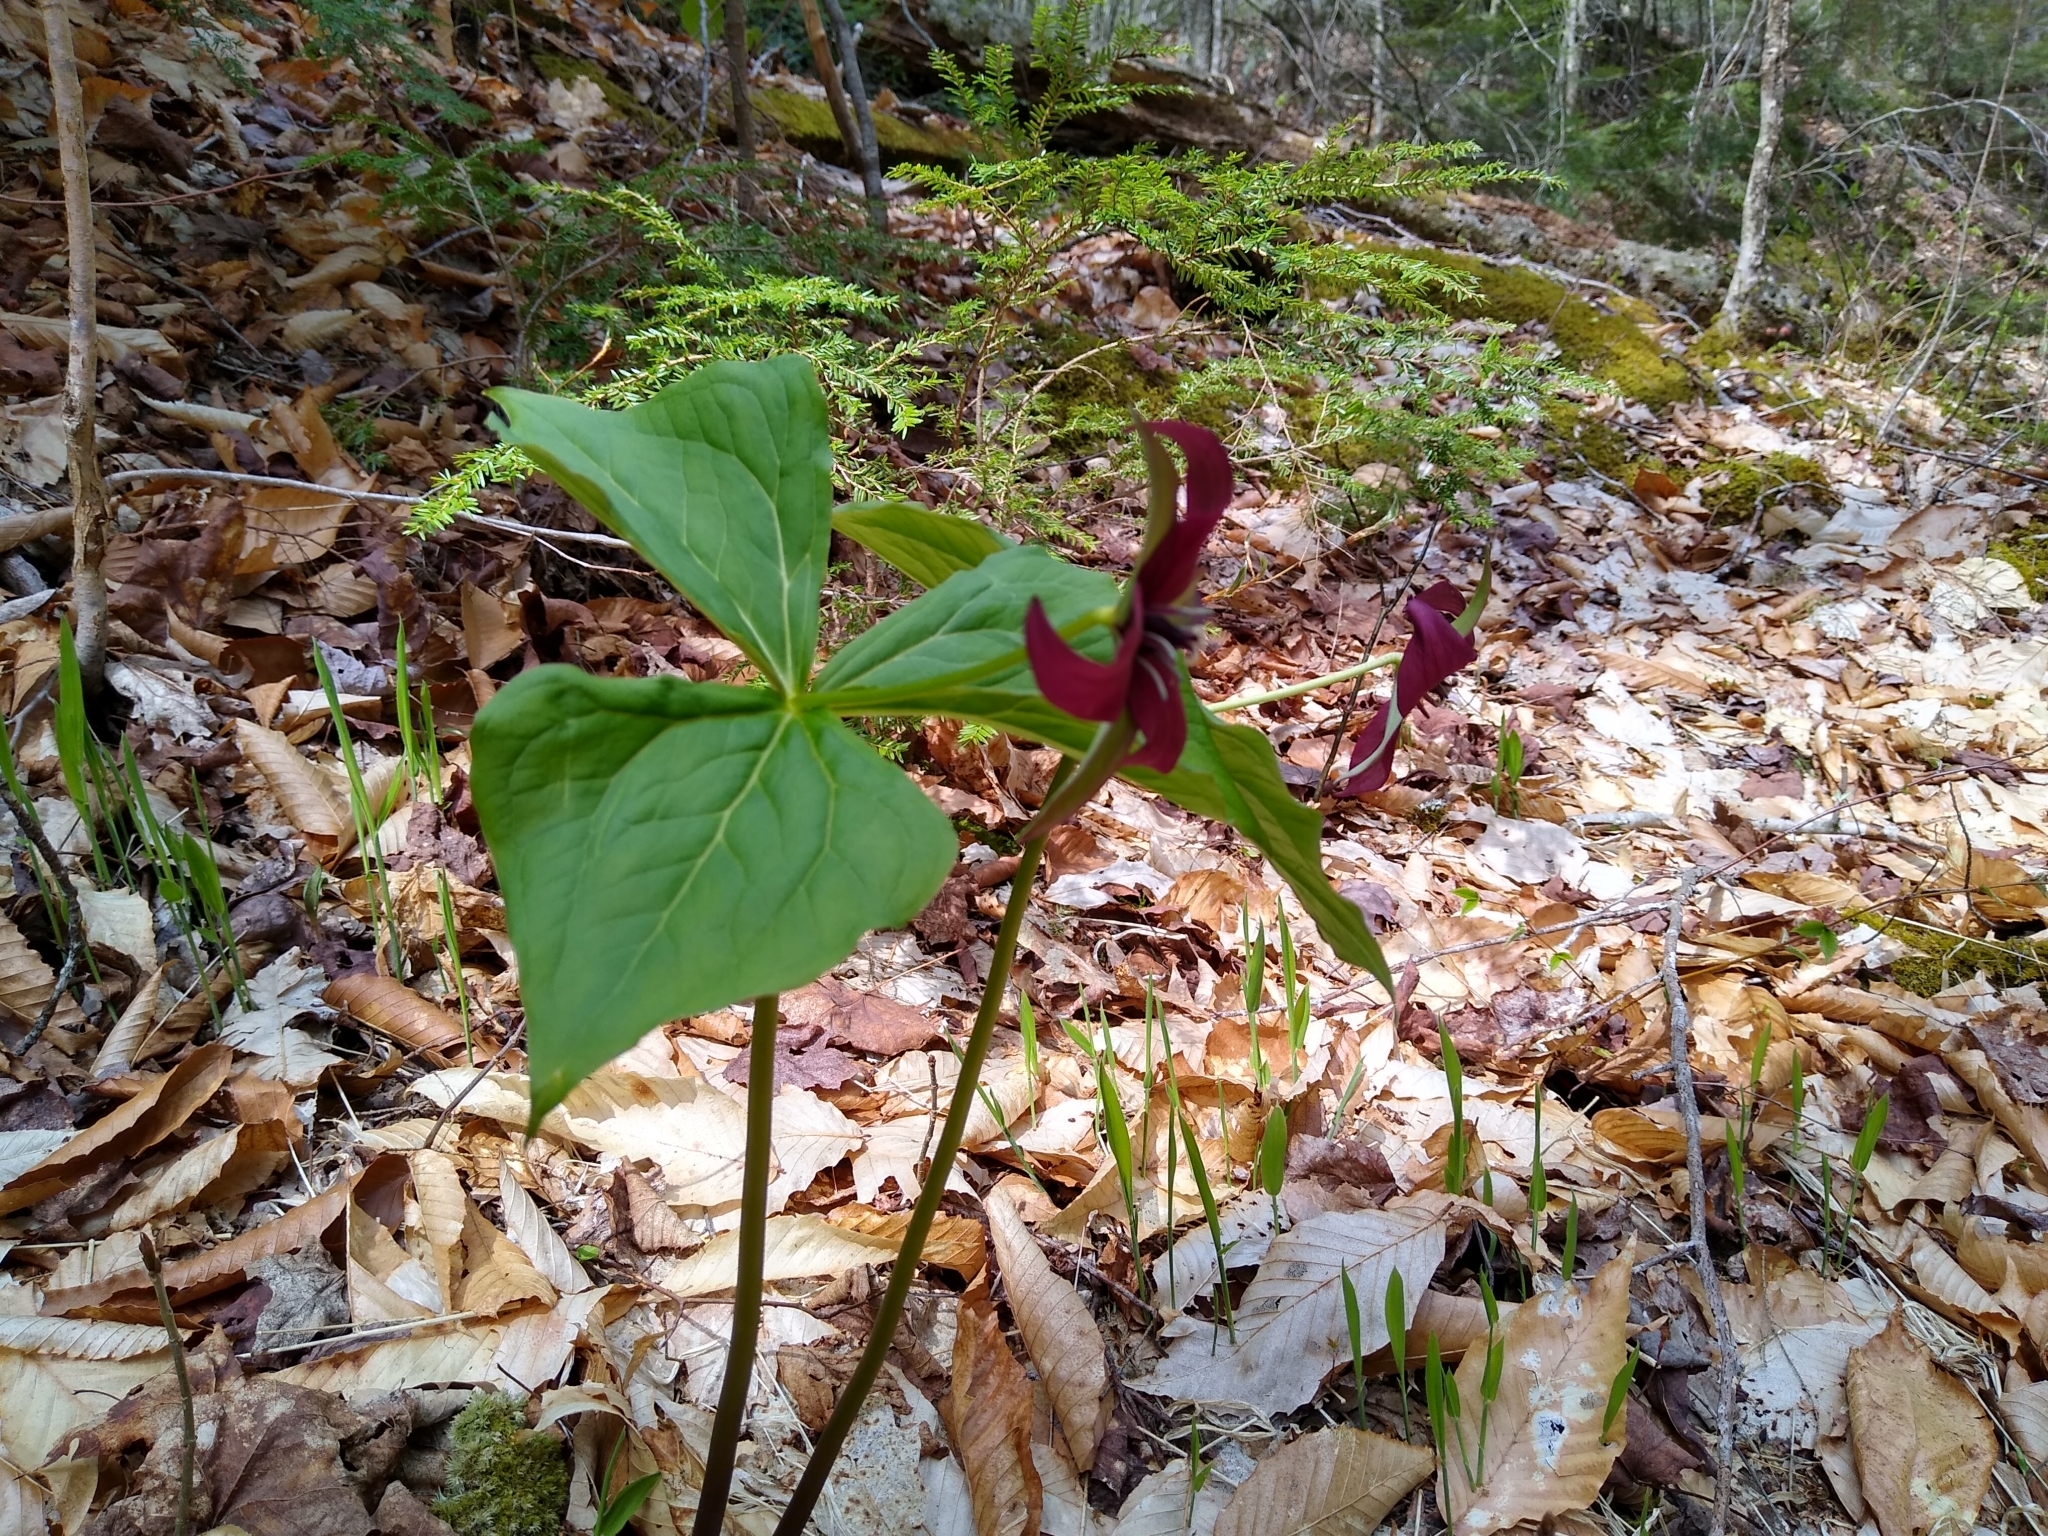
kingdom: Plantae
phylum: Tracheophyta
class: Liliopsida
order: Liliales
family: Melanthiaceae
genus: Trillium
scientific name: Trillium erectum
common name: Purple trillium
